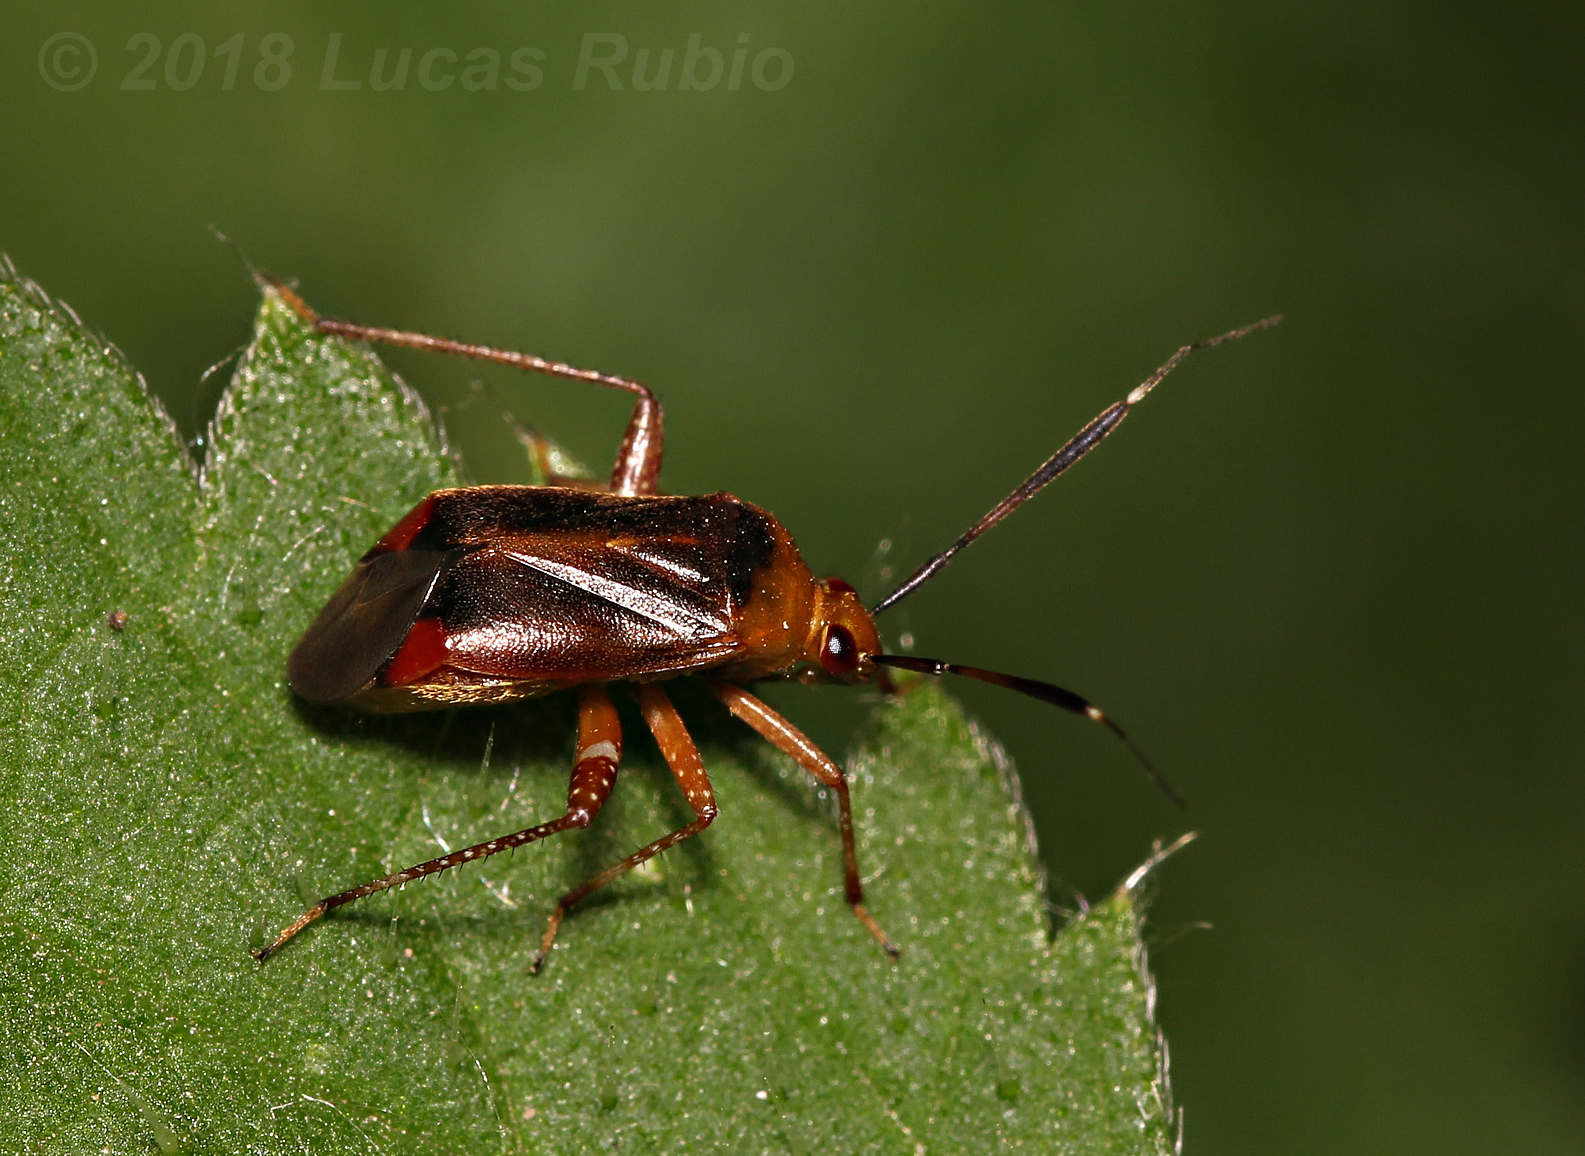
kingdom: Animalia
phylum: Arthropoda
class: Insecta
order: Hemiptera
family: Miridae
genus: Horciasinus
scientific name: Horciasinus argentinus
